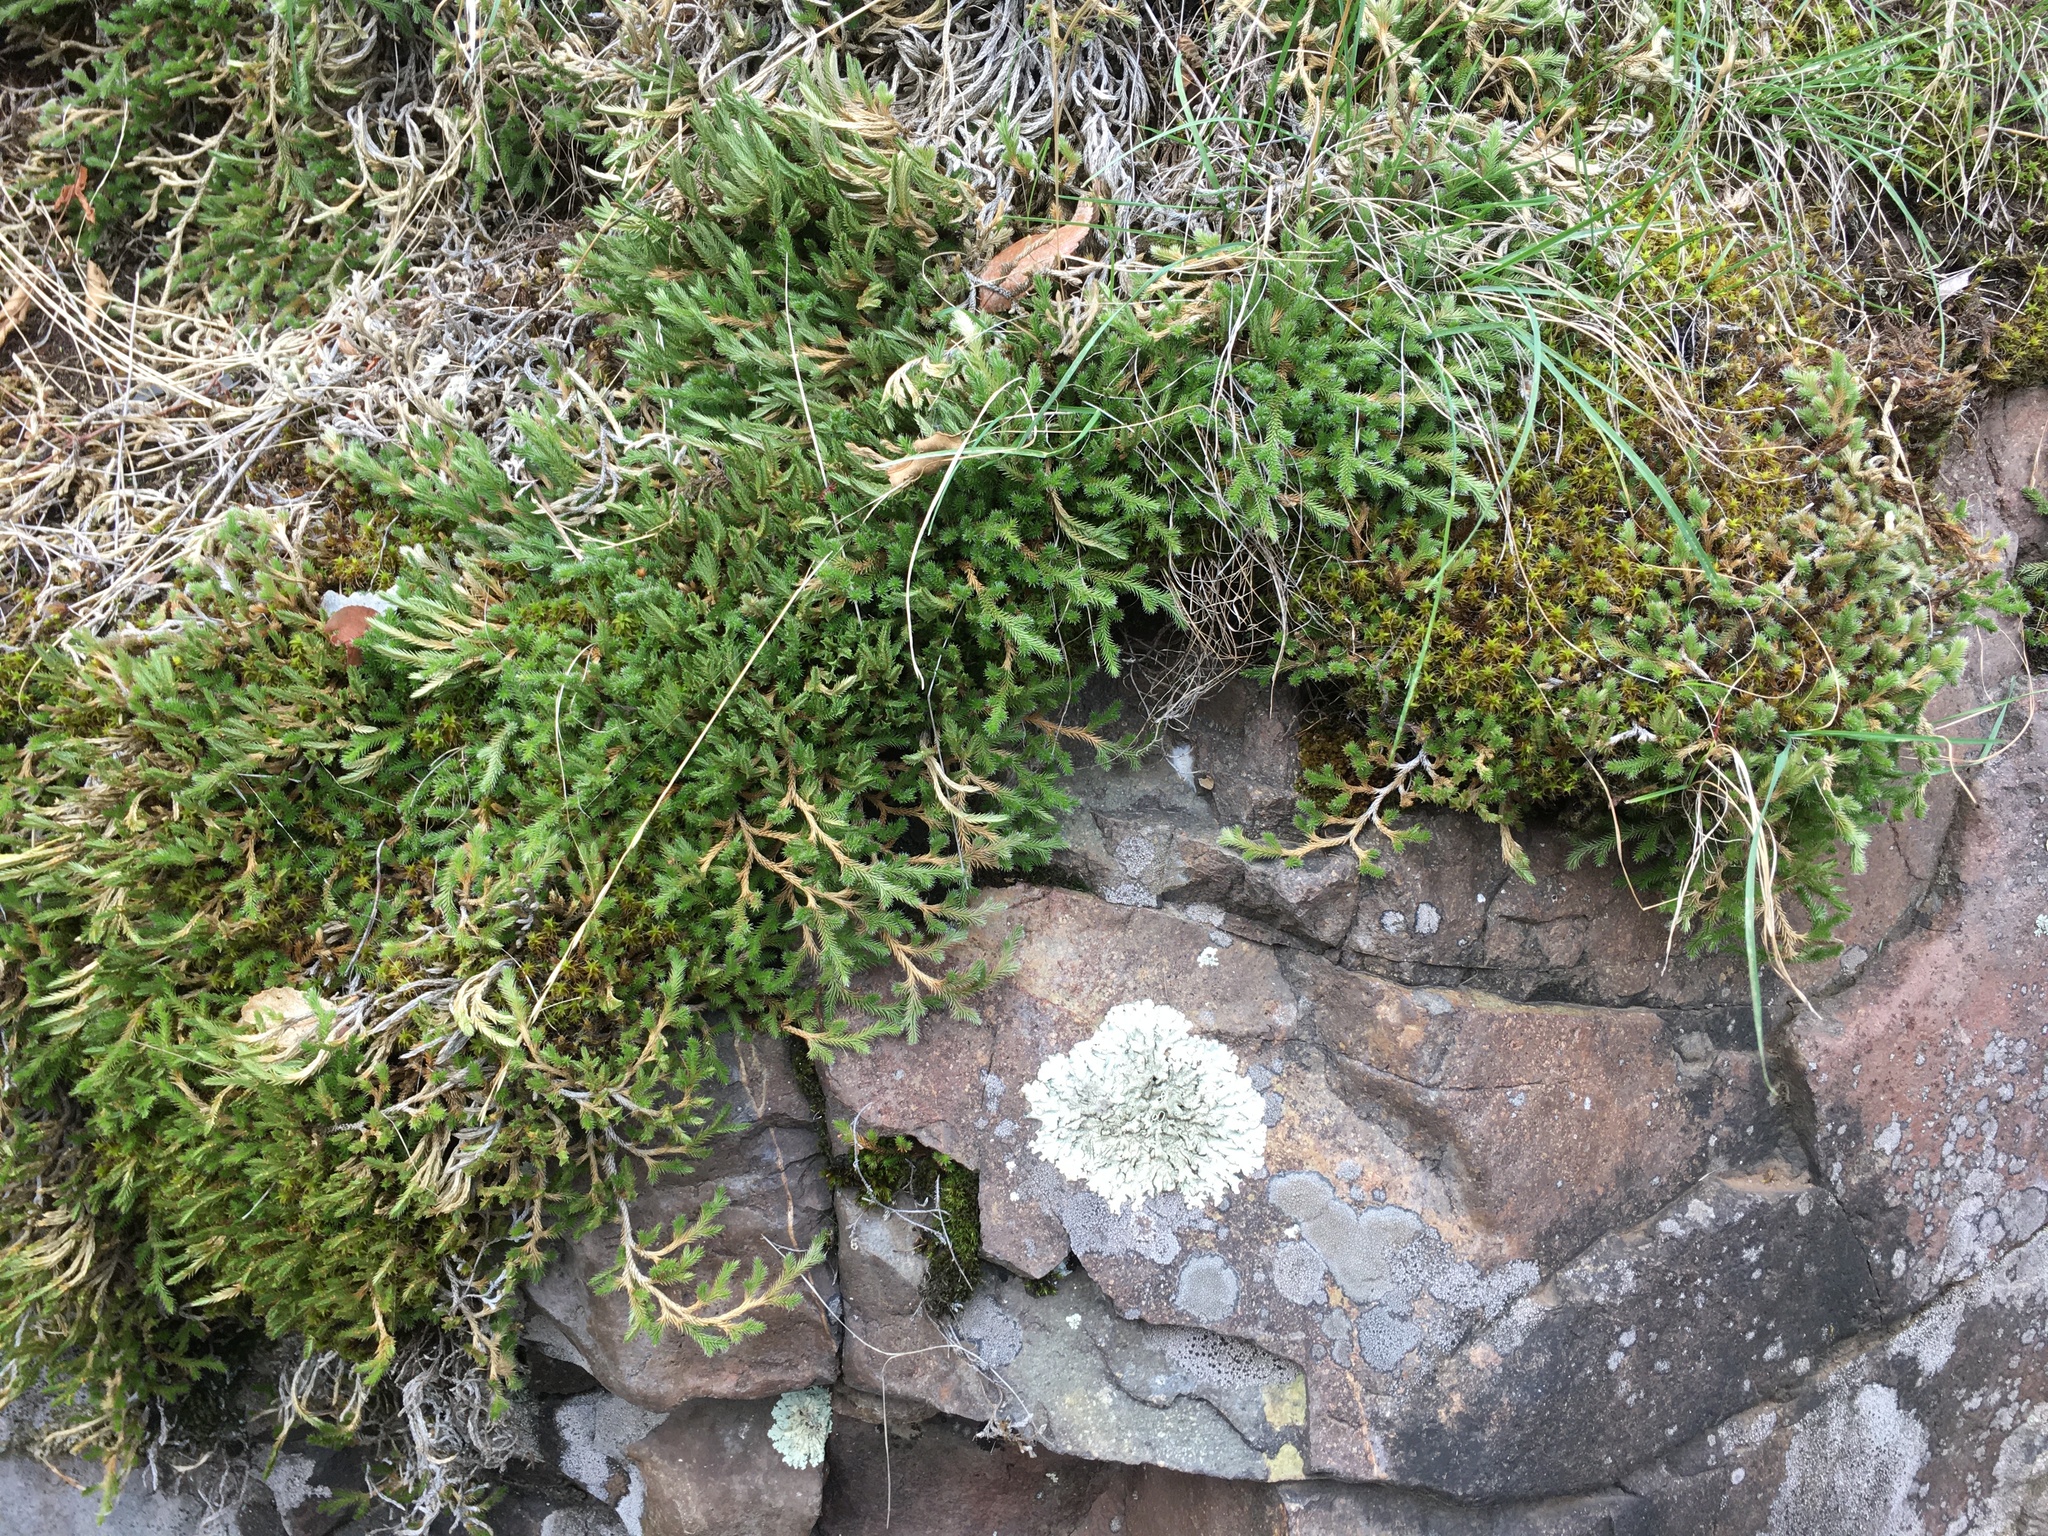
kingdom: Plantae
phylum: Tracheophyta
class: Lycopodiopsida
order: Selaginellales
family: Selaginellaceae
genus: Selaginella
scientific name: Selaginella wallacei
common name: Wallace's selaginella
